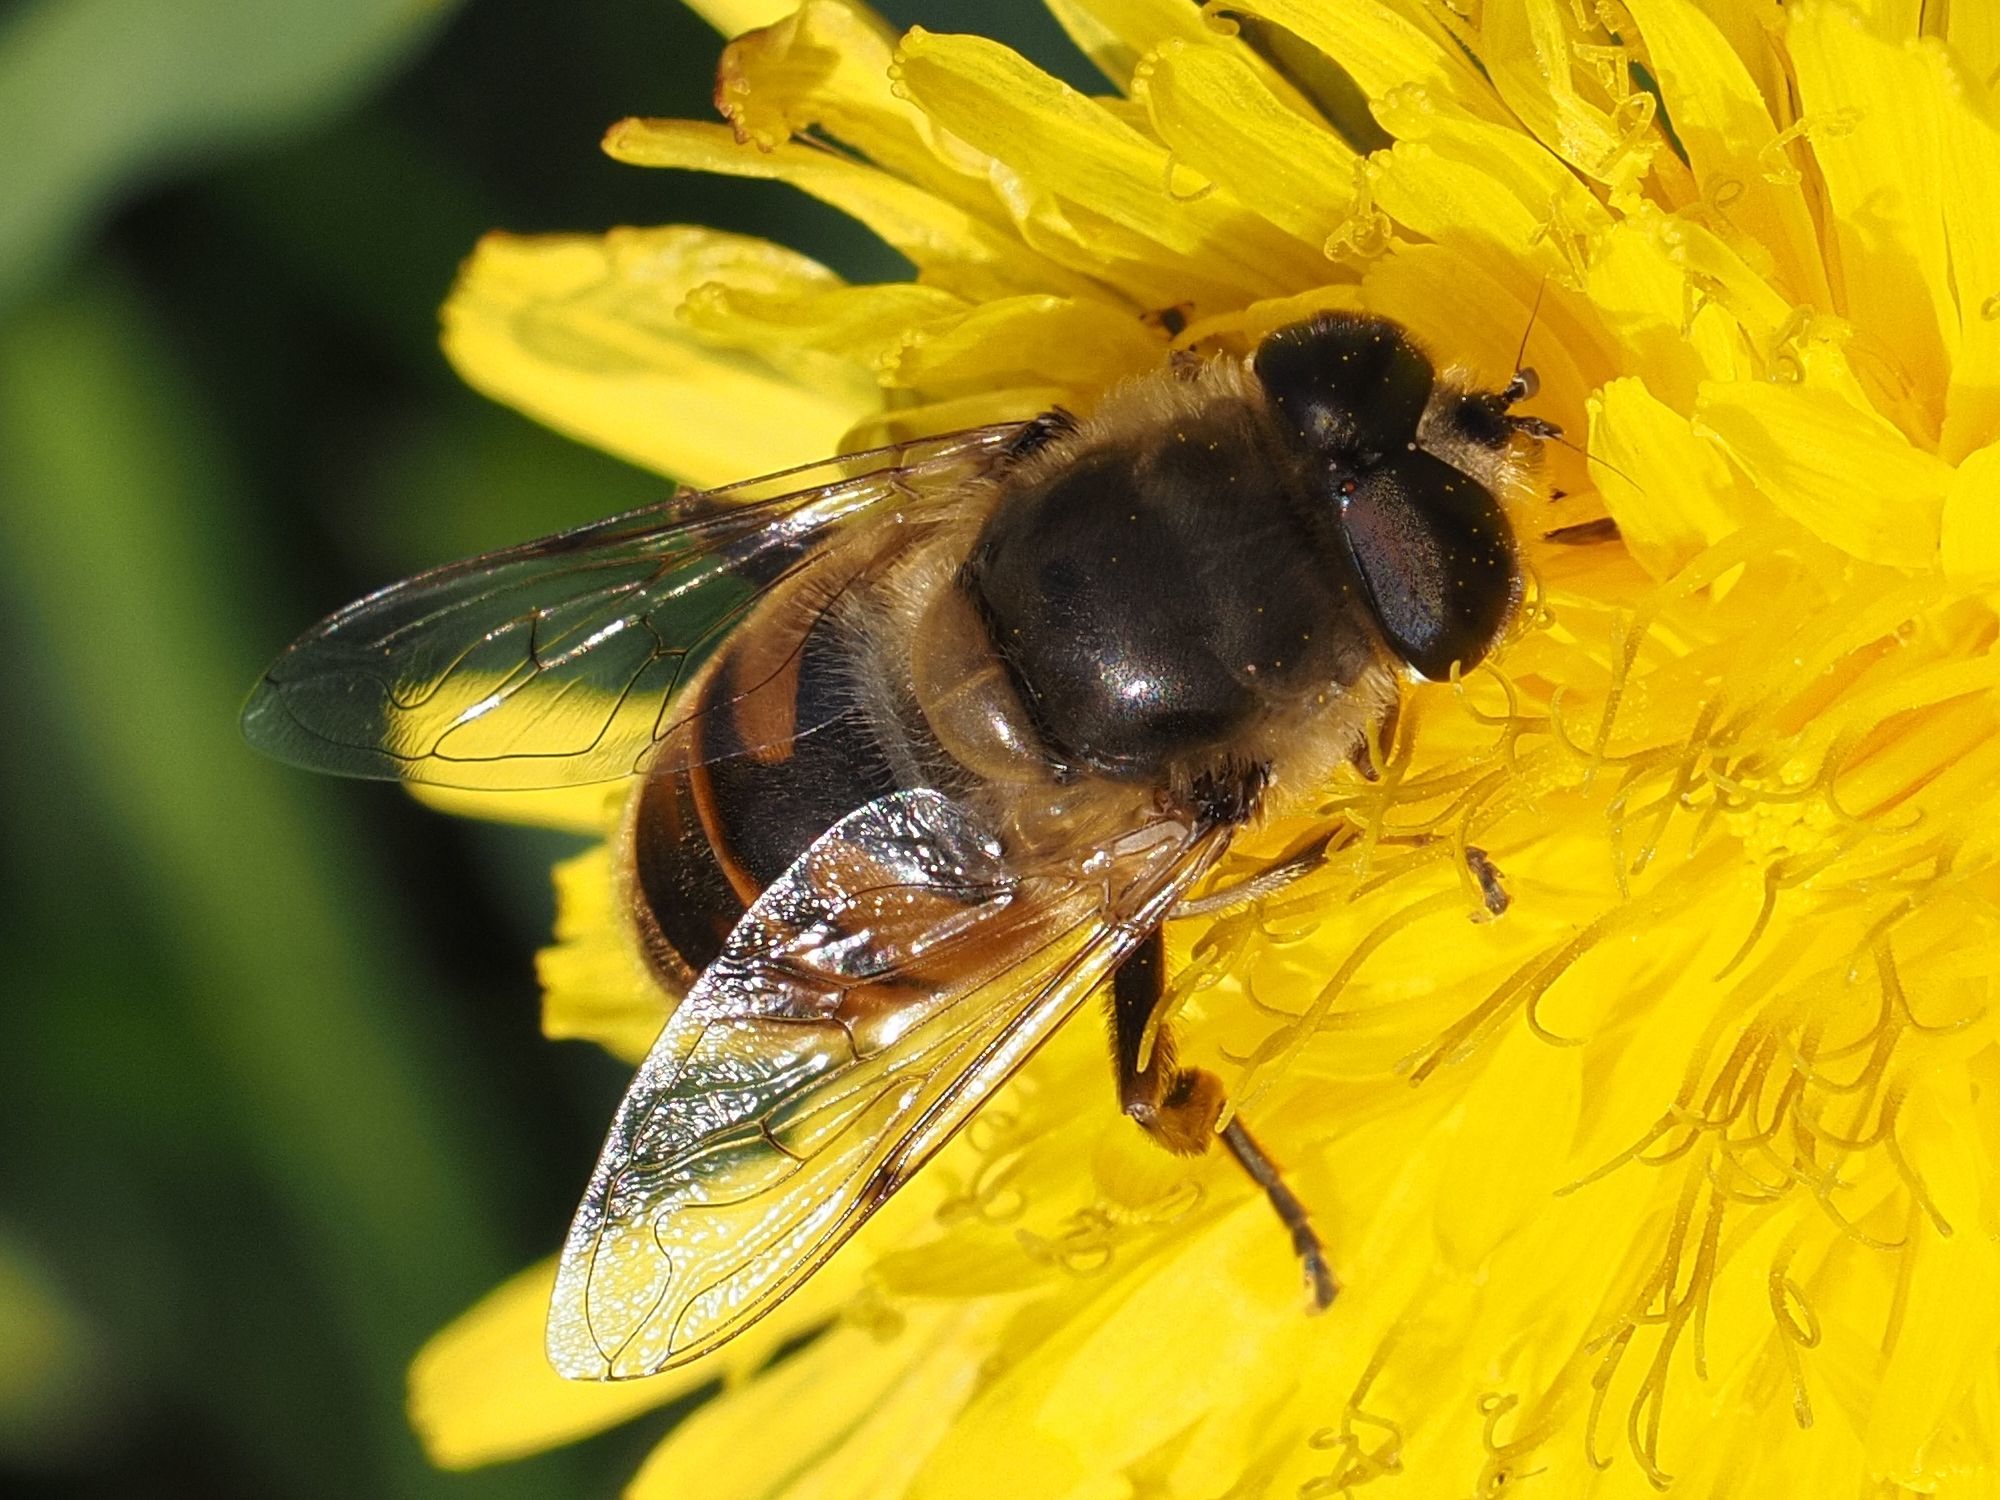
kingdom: Animalia
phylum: Arthropoda
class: Insecta
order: Diptera
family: Syrphidae
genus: Eristalis
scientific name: Eristalis tenax
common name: Drone fly
